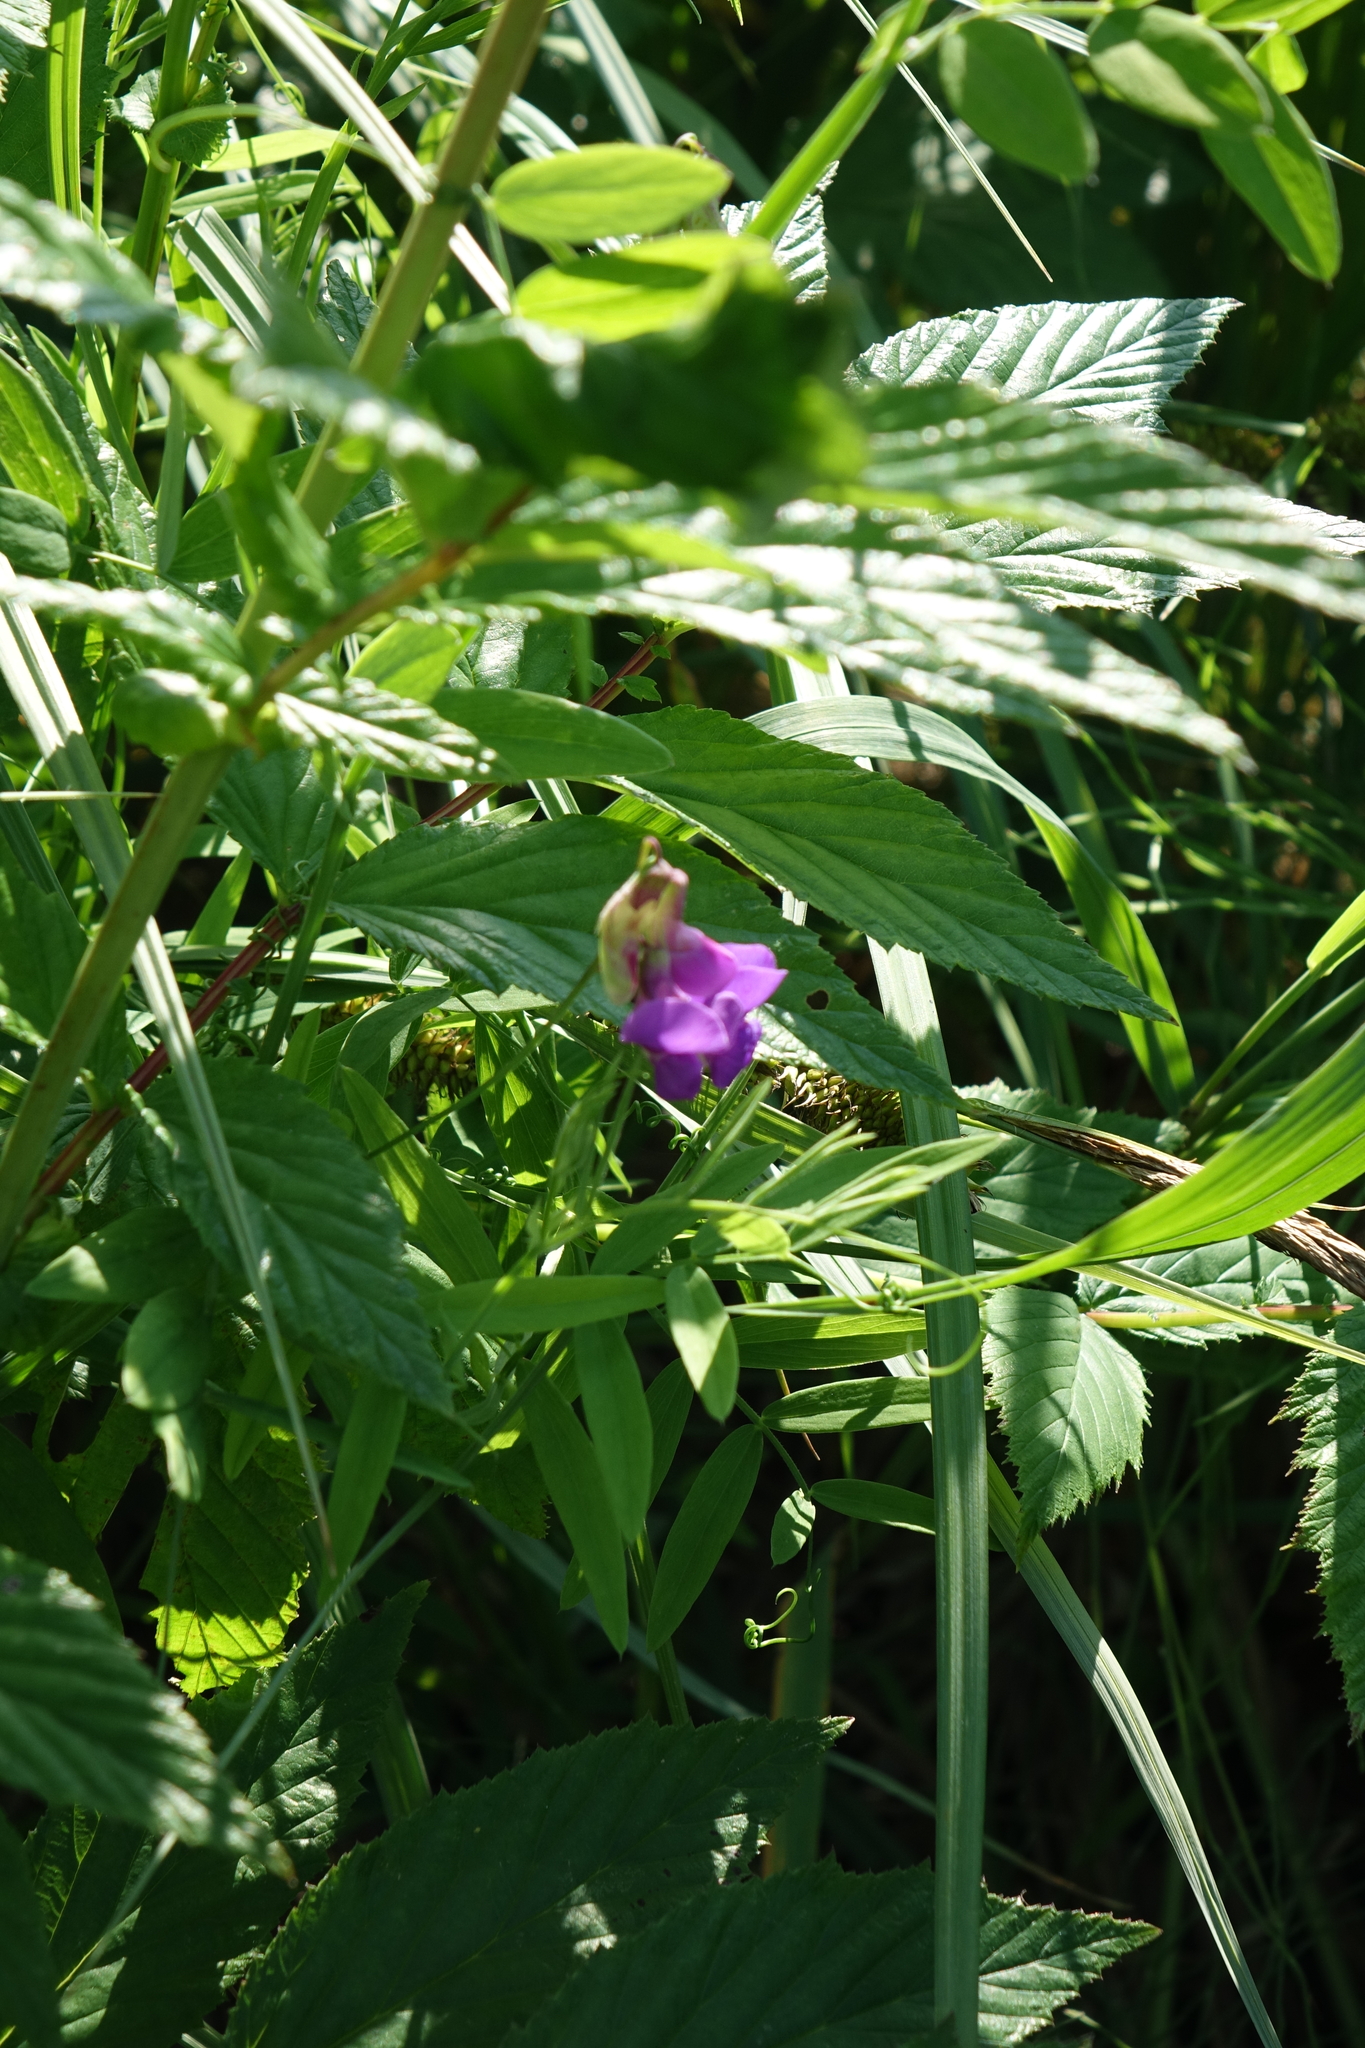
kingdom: Plantae
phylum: Tracheophyta
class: Magnoliopsida
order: Fabales
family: Fabaceae
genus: Lathyrus
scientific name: Lathyrus palustris
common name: Marsh pea
